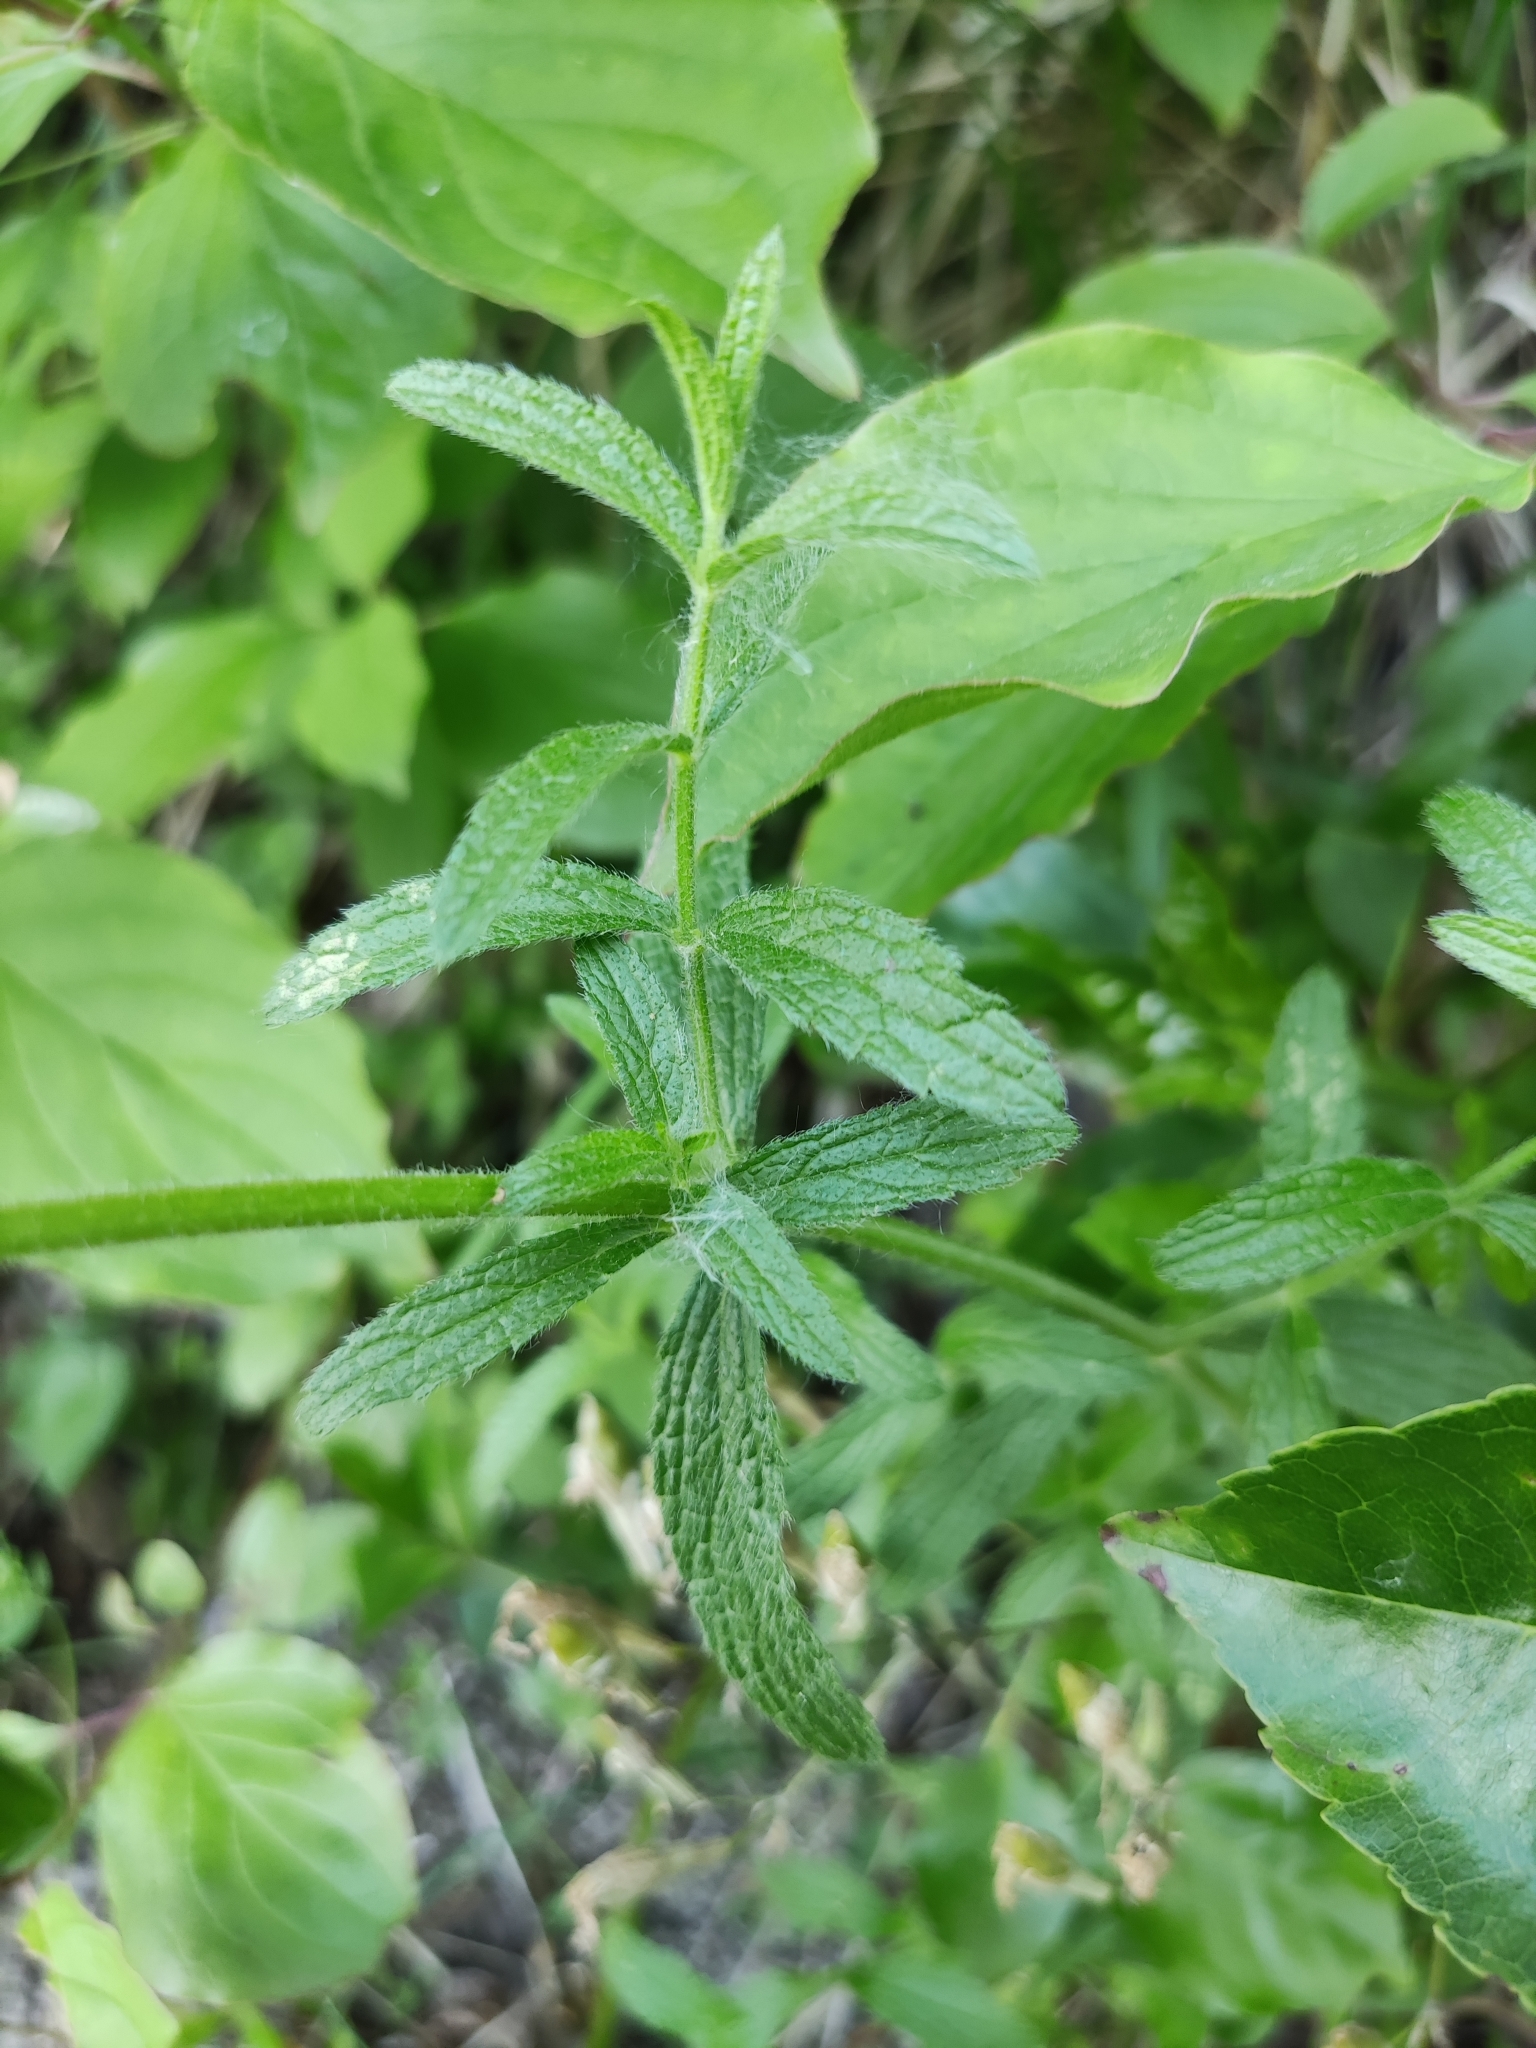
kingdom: Plantae
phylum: Tracheophyta
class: Magnoliopsida
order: Lamiales
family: Lamiaceae
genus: Stachys
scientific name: Stachys recta
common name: Perennial yellow-woundwort
